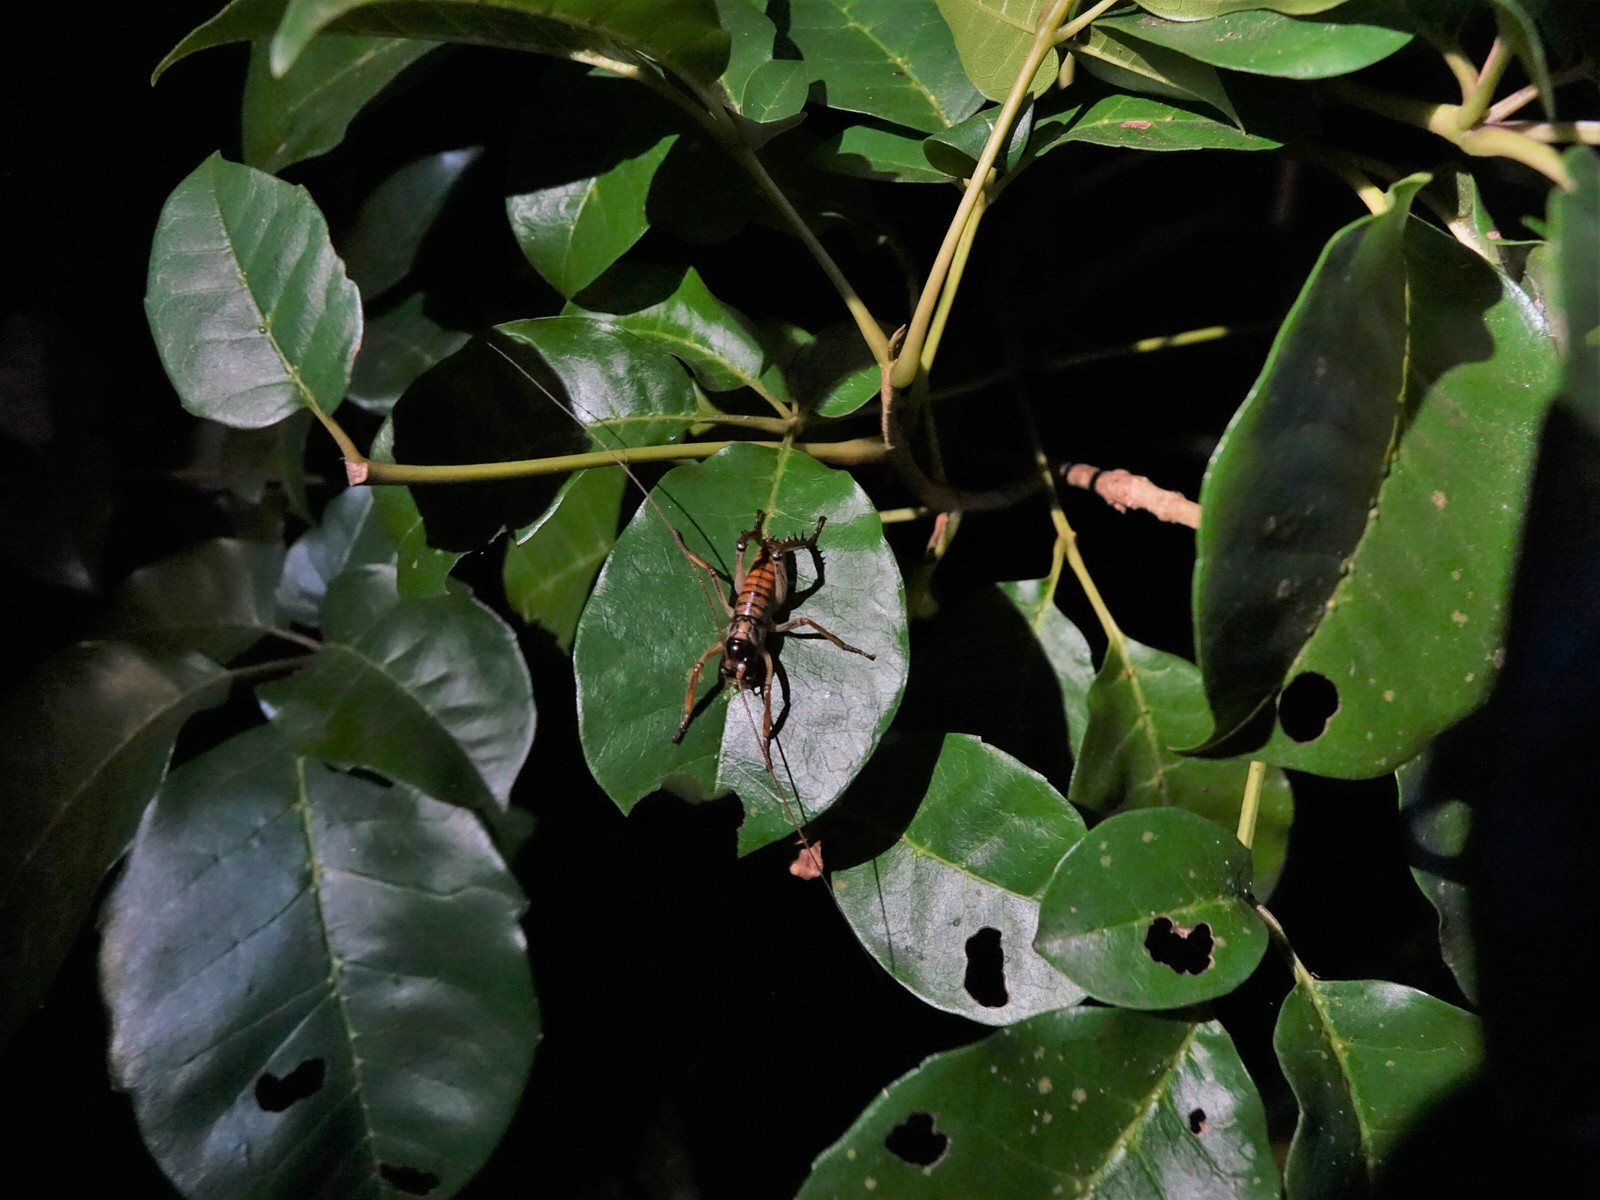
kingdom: Animalia
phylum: Arthropoda
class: Insecta
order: Orthoptera
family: Anostostomatidae
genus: Hemideina
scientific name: Hemideina thoracica
